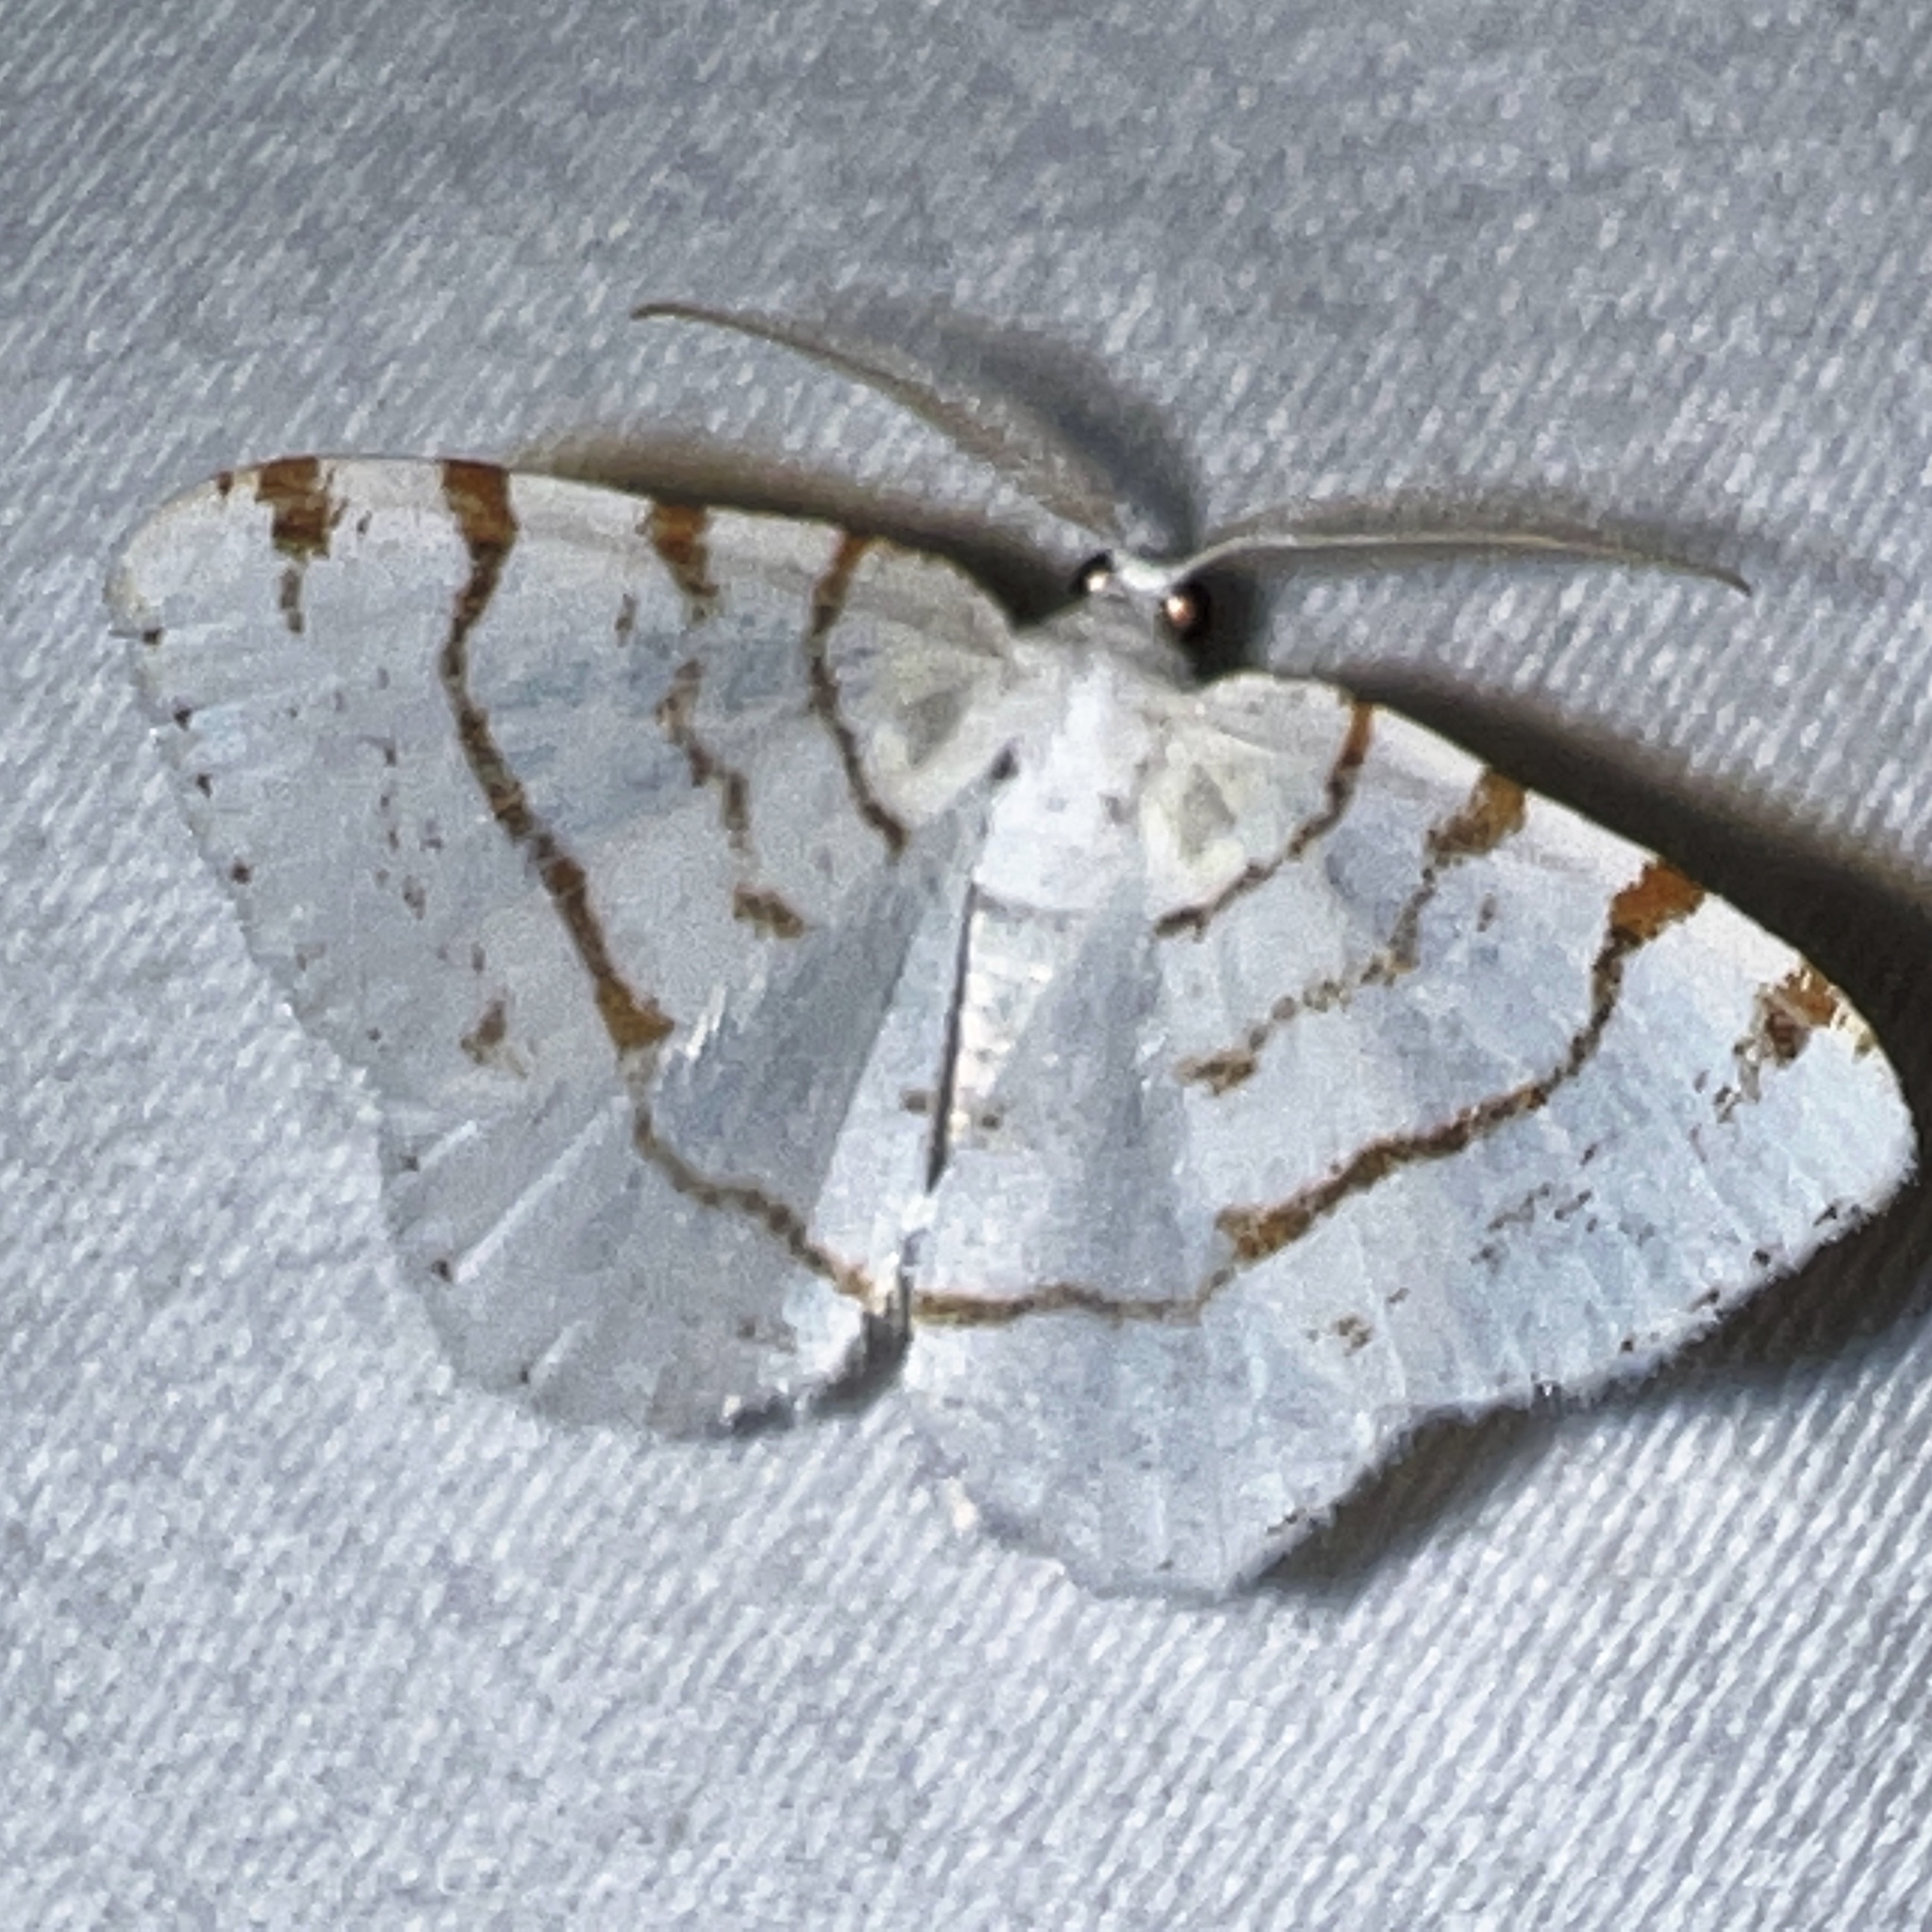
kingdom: Animalia
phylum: Arthropoda
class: Insecta
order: Lepidoptera
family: Geometridae
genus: Macaria
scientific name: Macaria pustularia
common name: Lesser maple spanworm moth
